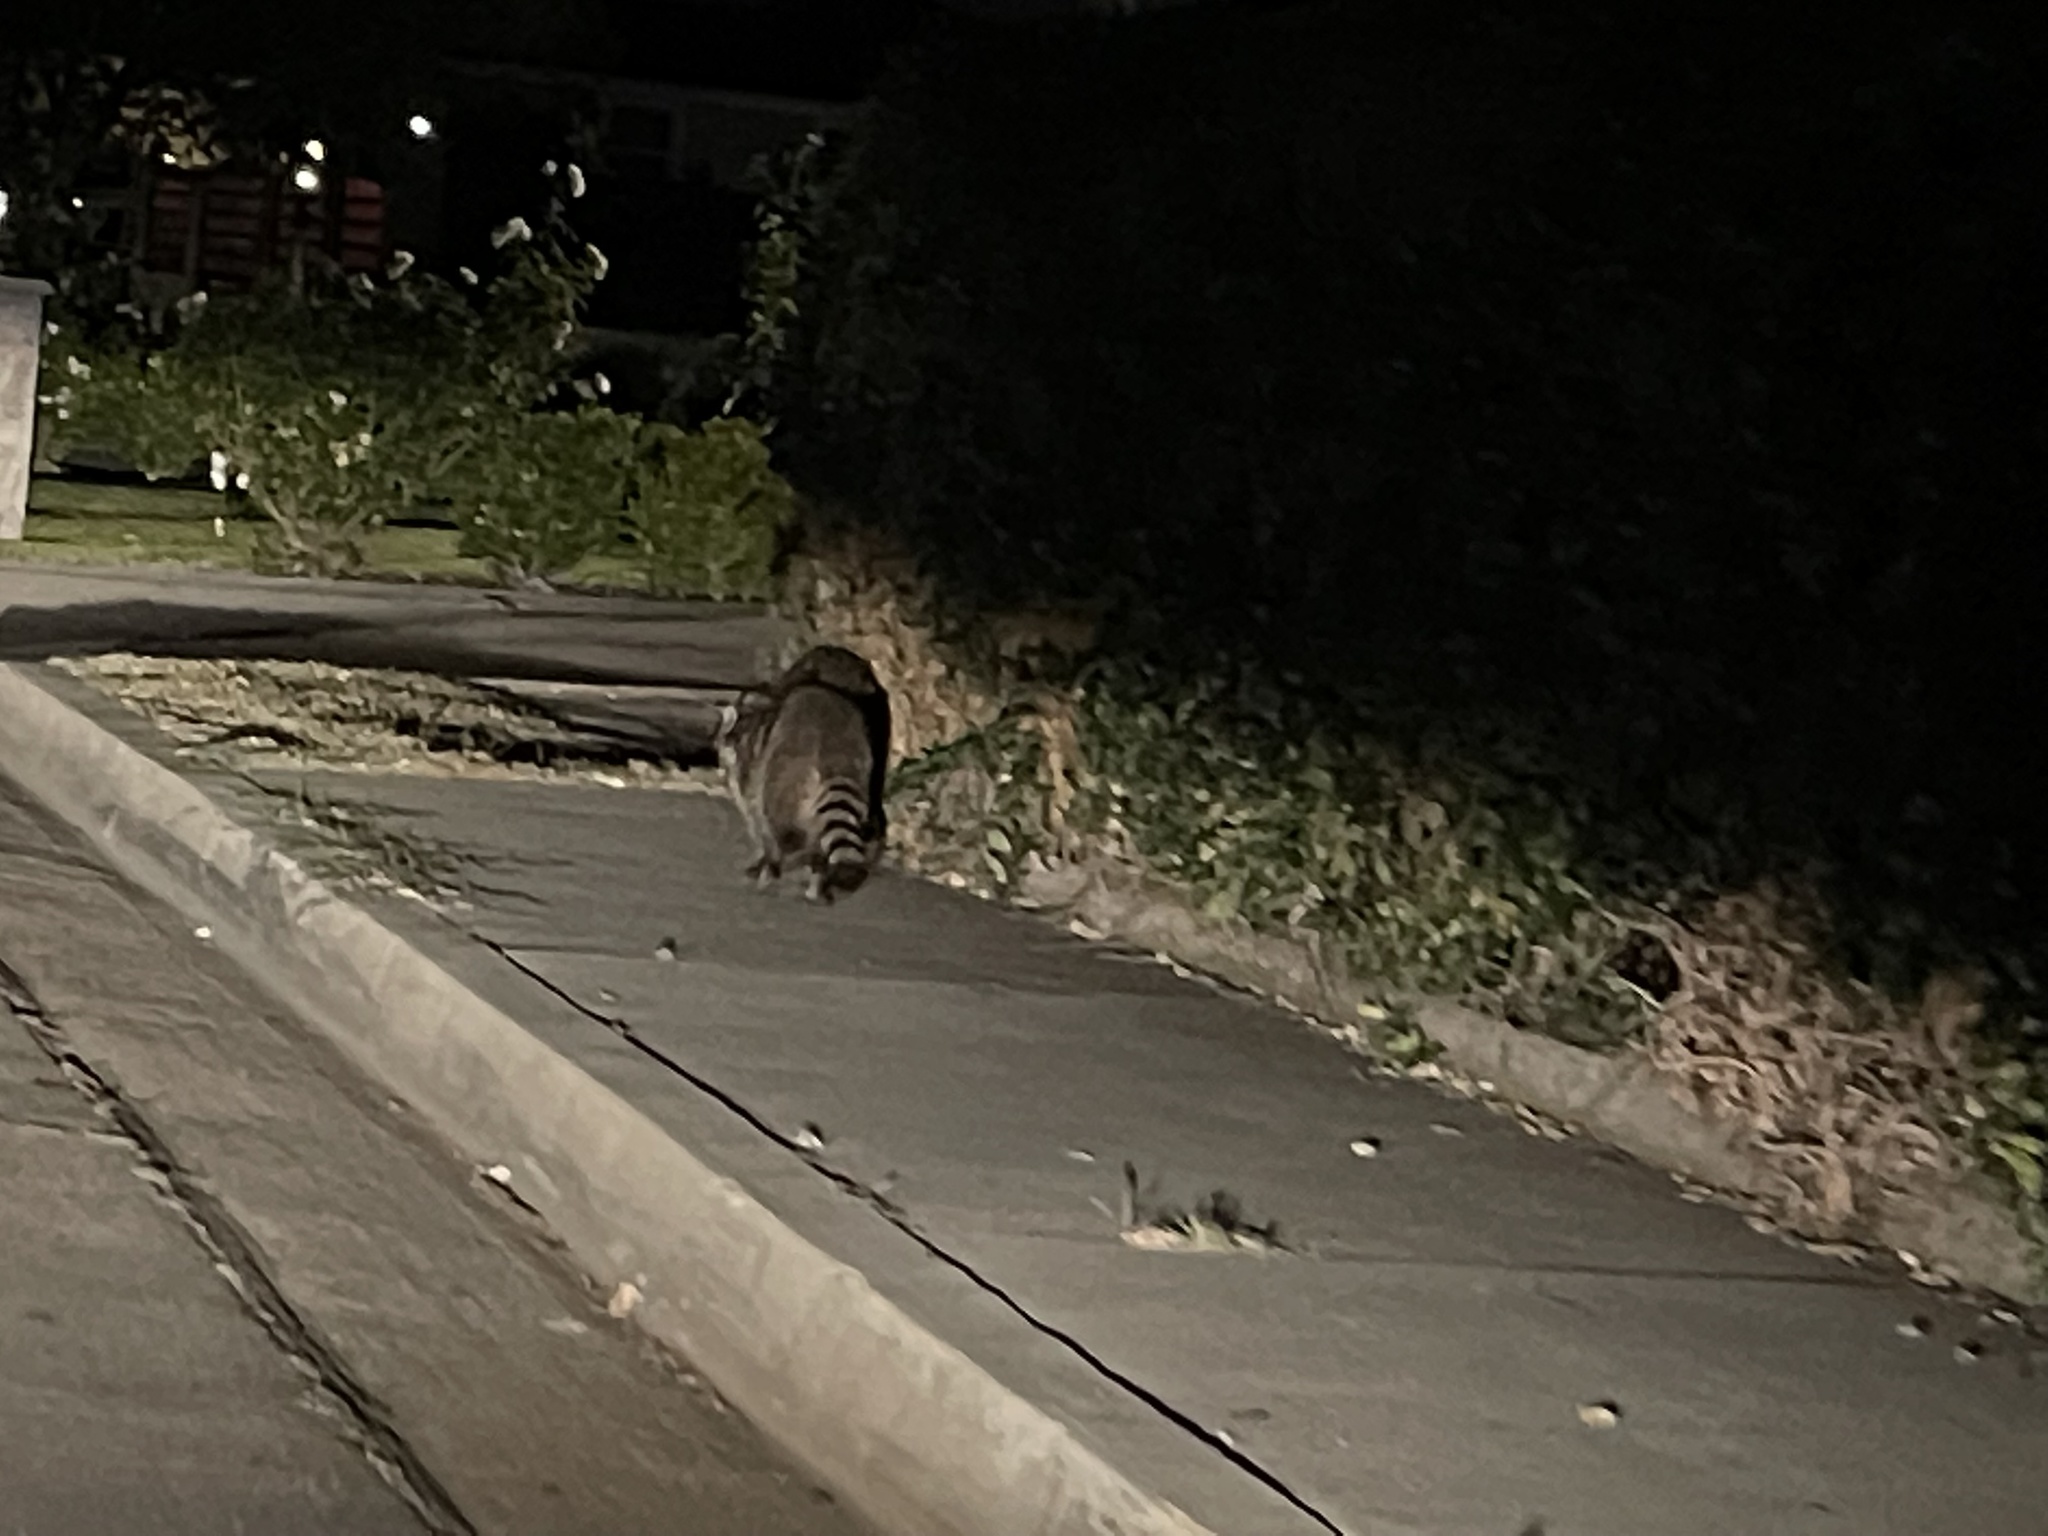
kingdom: Animalia
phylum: Chordata
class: Mammalia
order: Carnivora
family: Procyonidae
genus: Procyon
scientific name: Procyon lotor
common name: Raccoon
